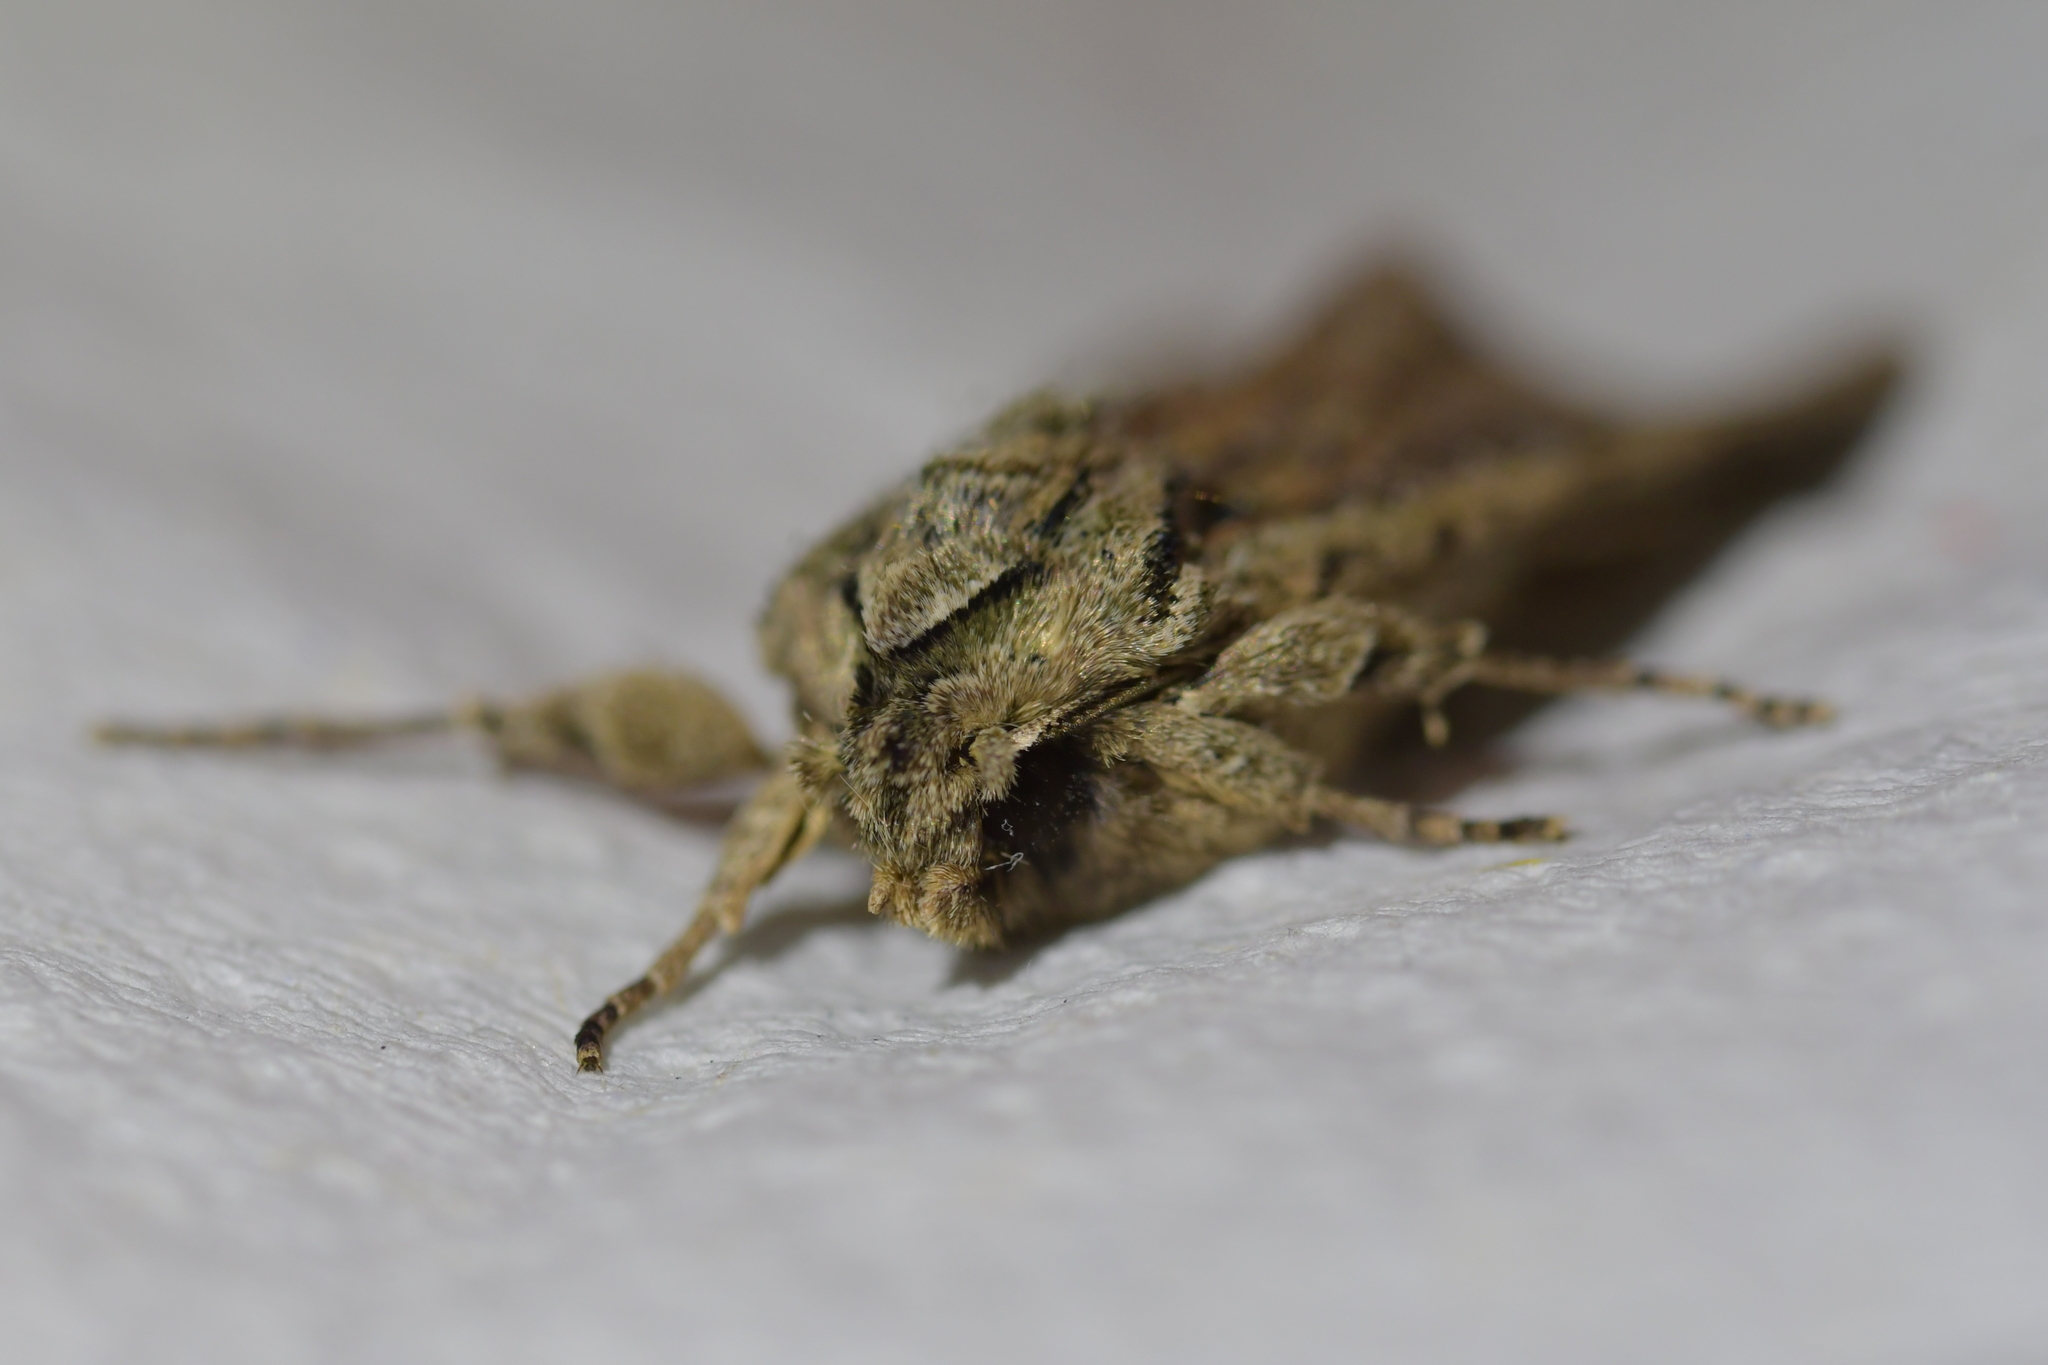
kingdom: Animalia
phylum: Arthropoda
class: Insecta
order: Lepidoptera
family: Noctuidae
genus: Ichneutica
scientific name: Ichneutica mutans
